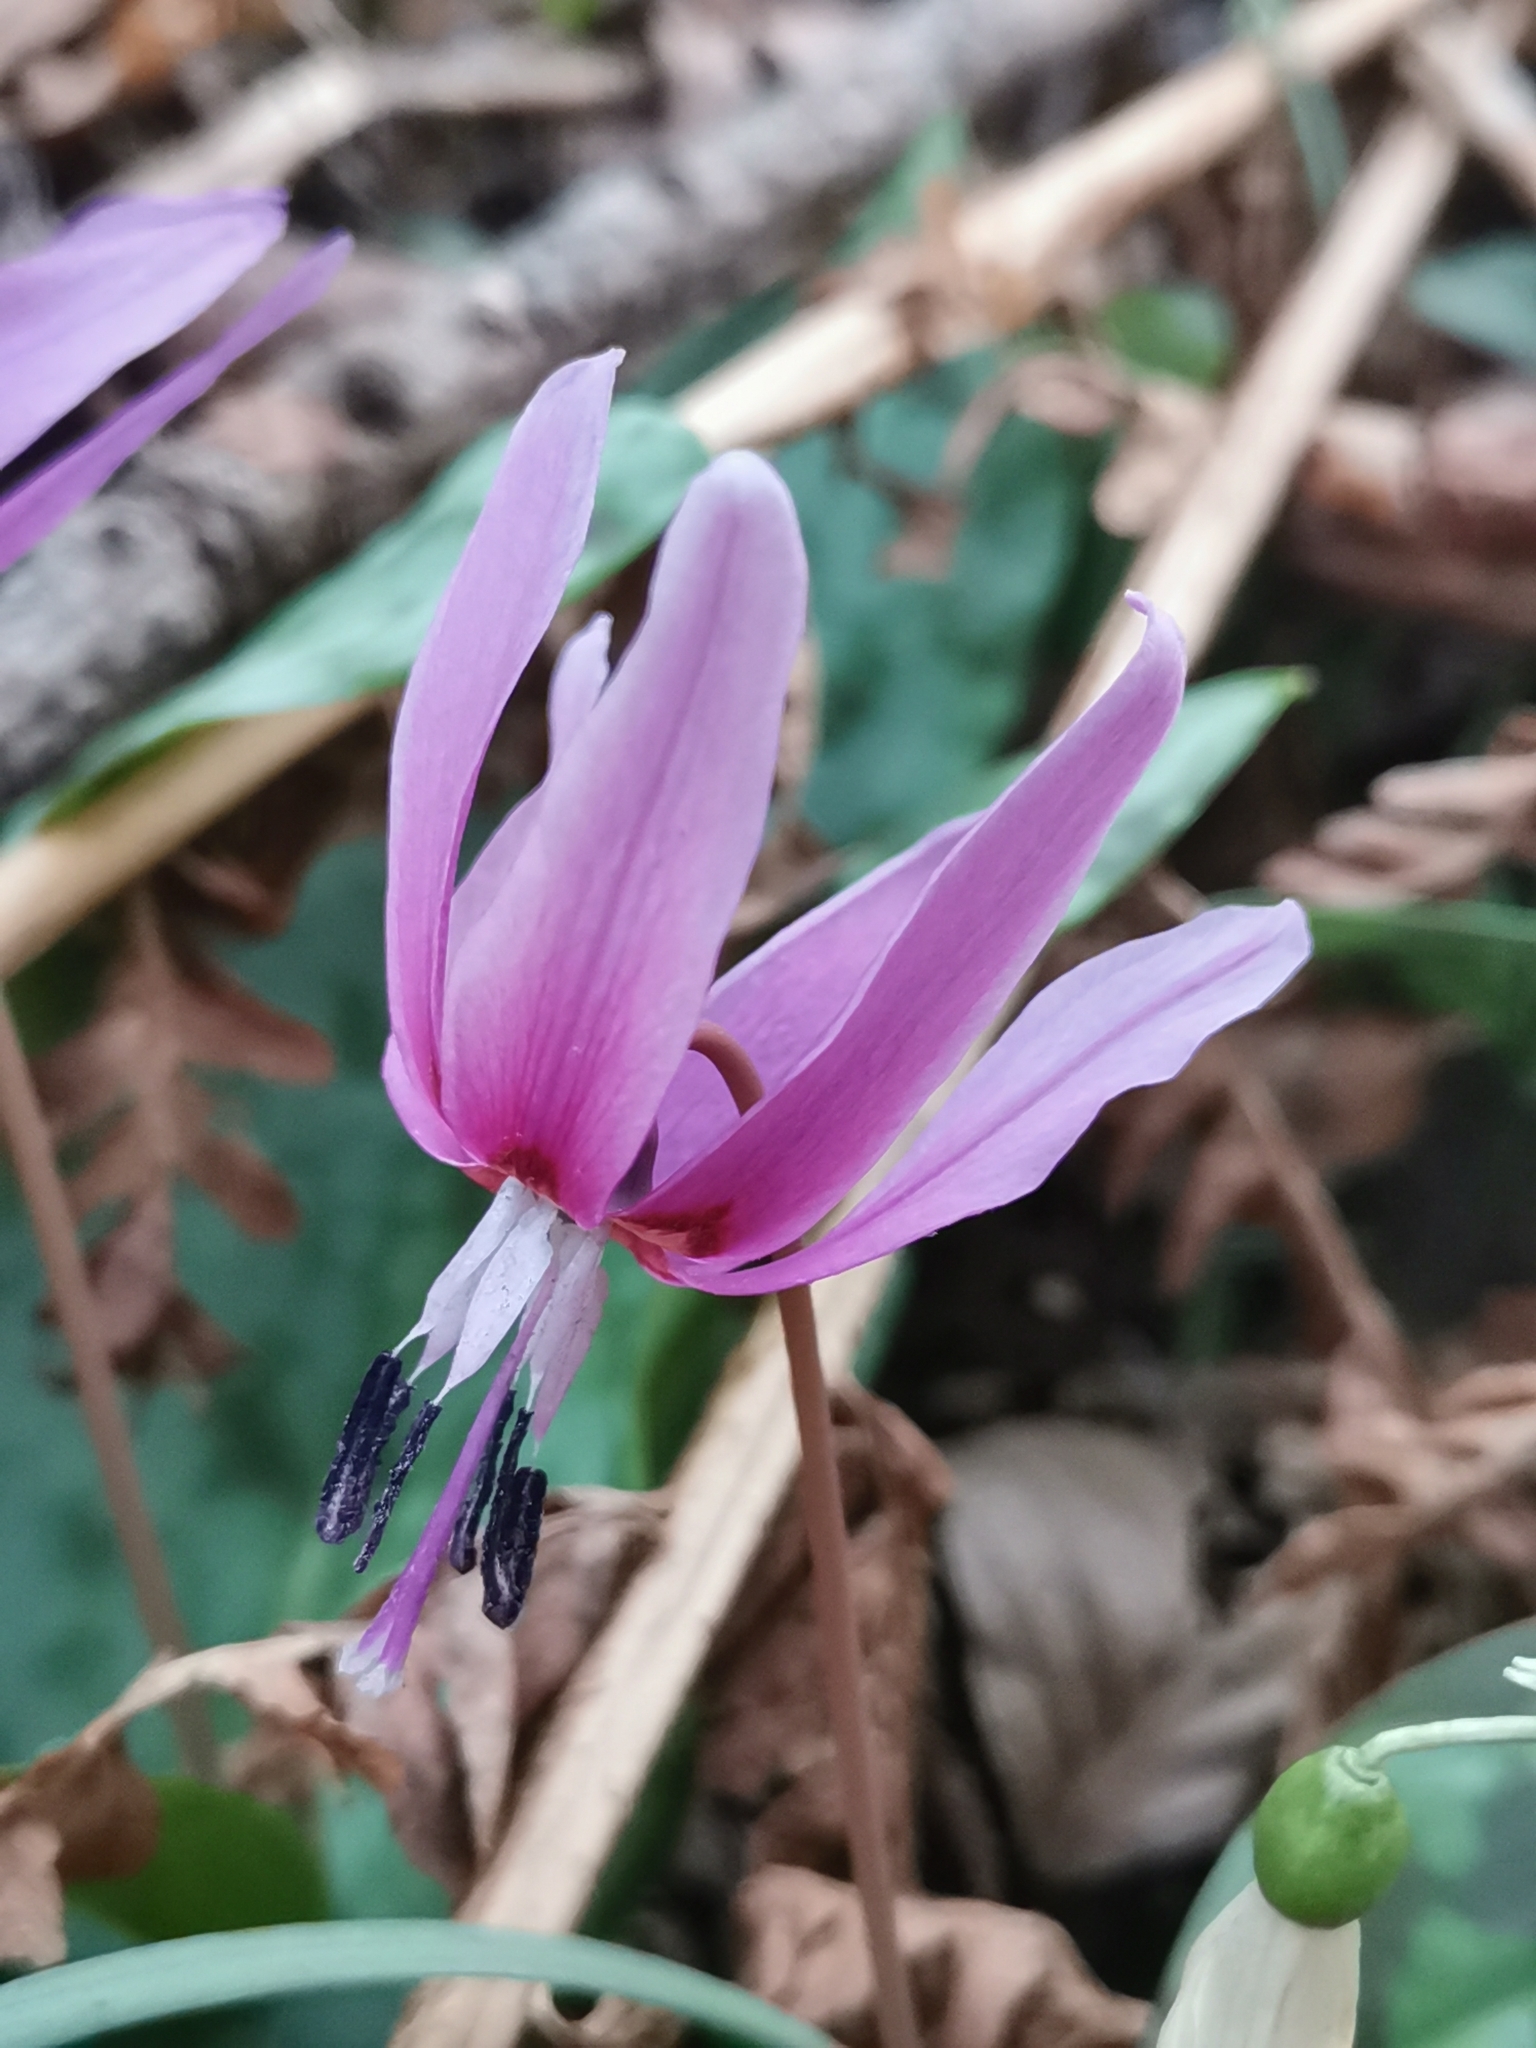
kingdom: Plantae
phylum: Tracheophyta
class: Liliopsida
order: Liliales
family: Liliaceae
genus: Erythronium
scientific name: Erythronium dens-canis
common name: Dog's-tooth-violet
